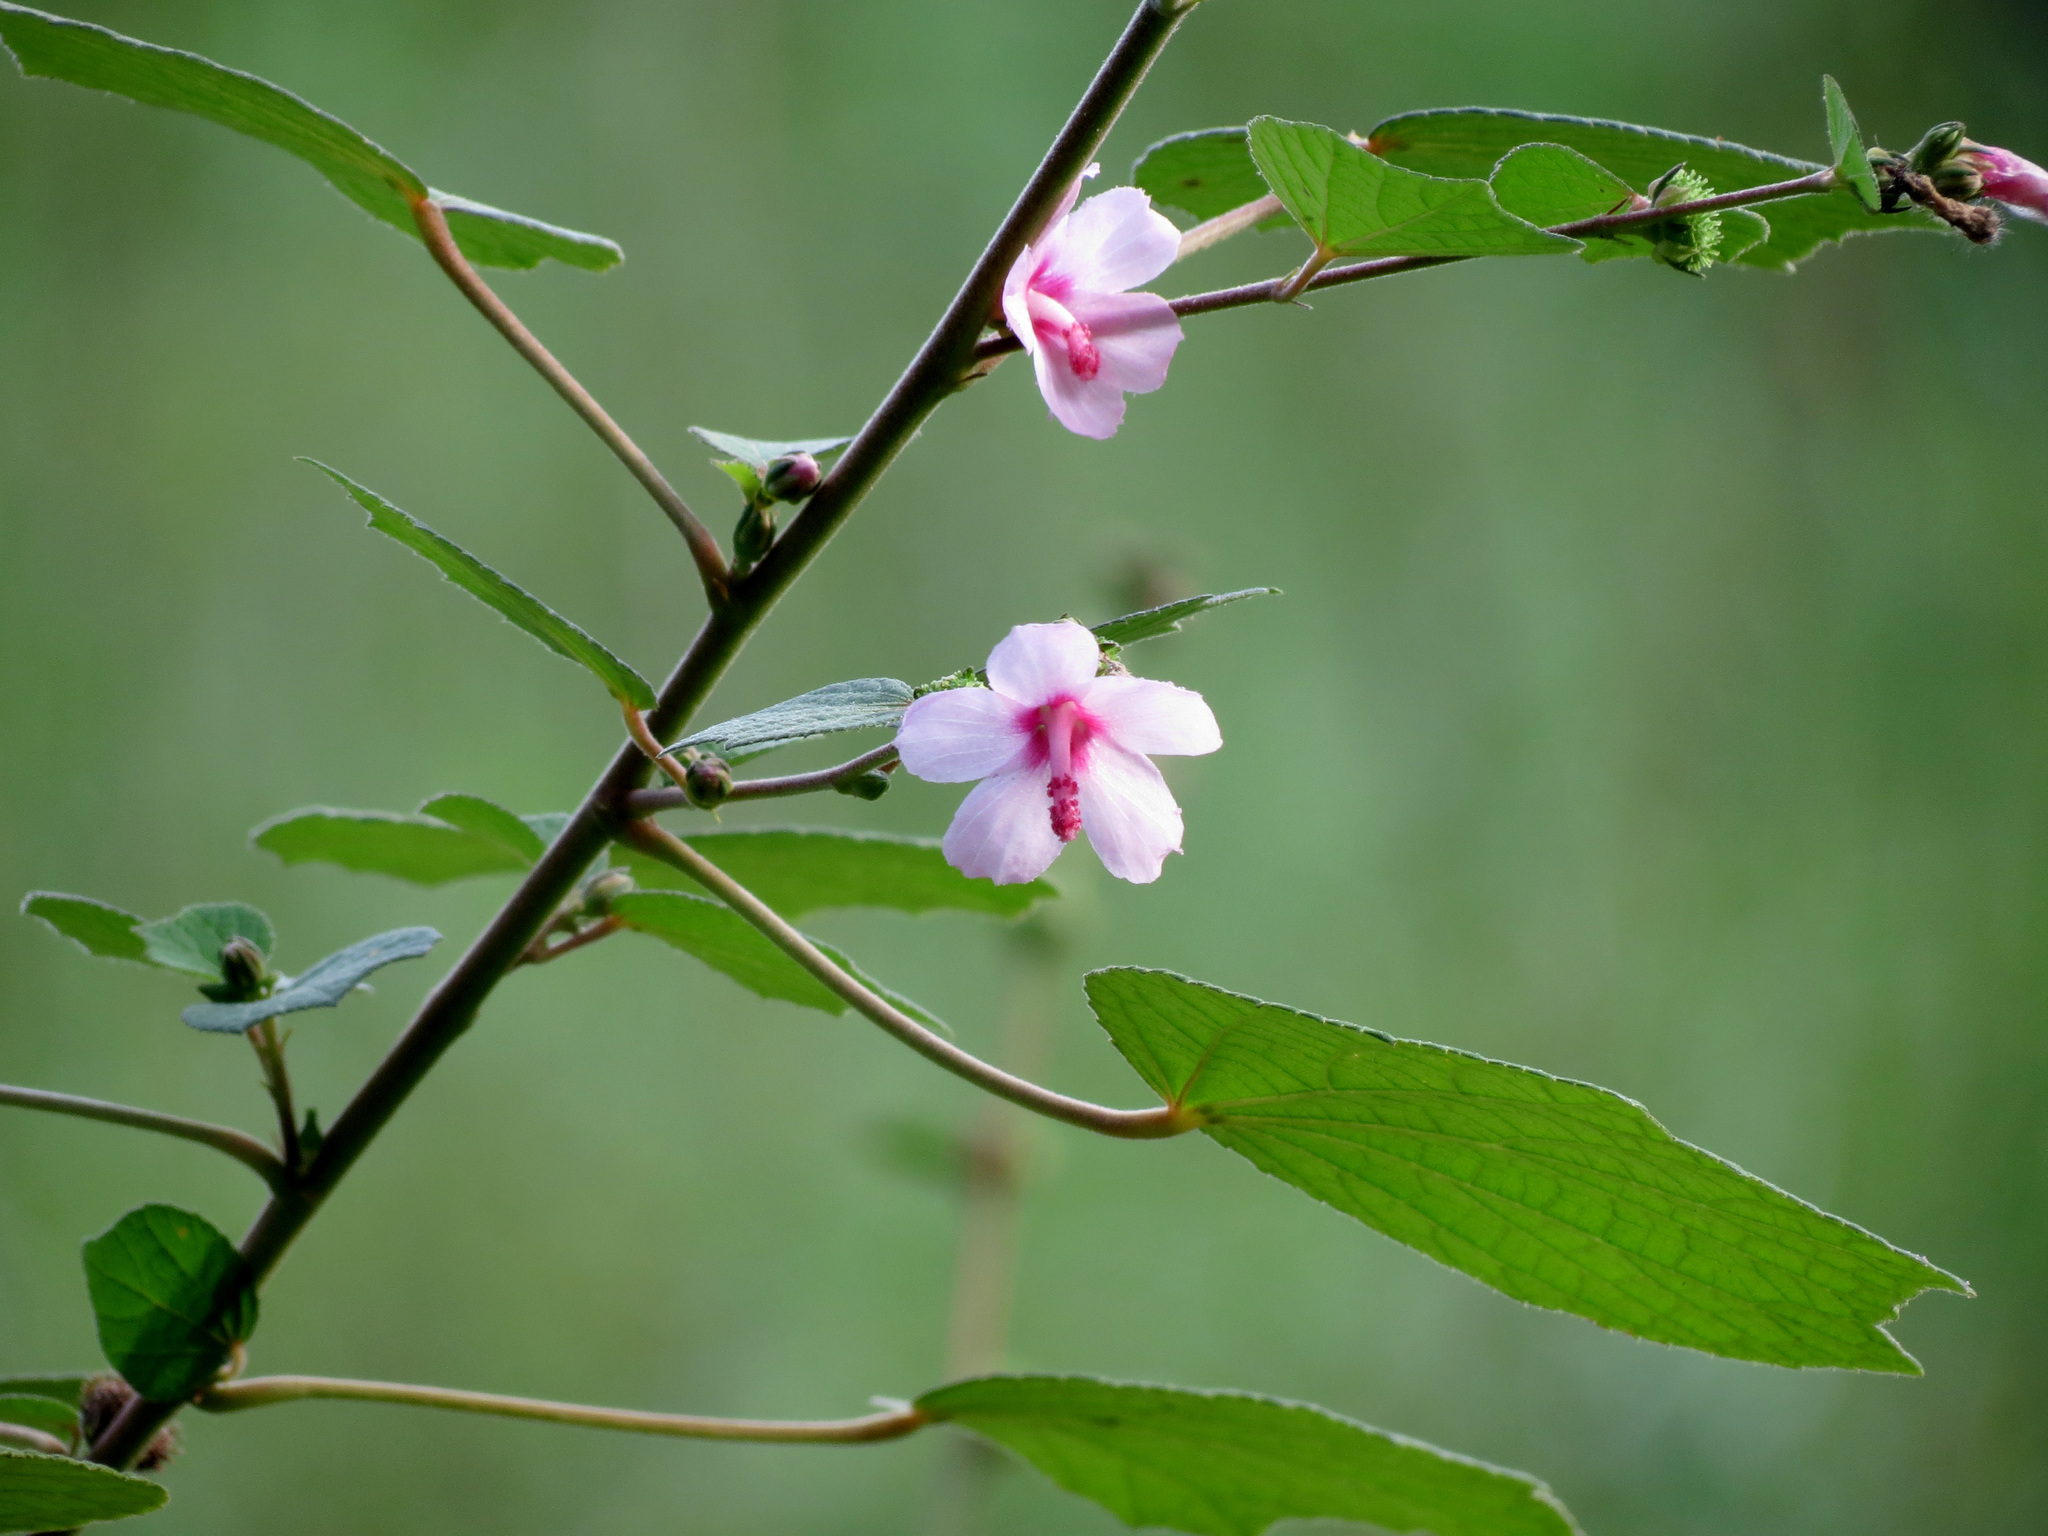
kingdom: Plantae
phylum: Tracheophyta
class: Magnoliopsida
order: Malvales
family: Malvaceae
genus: Urena
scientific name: Urena lobata
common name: Caesarweed
